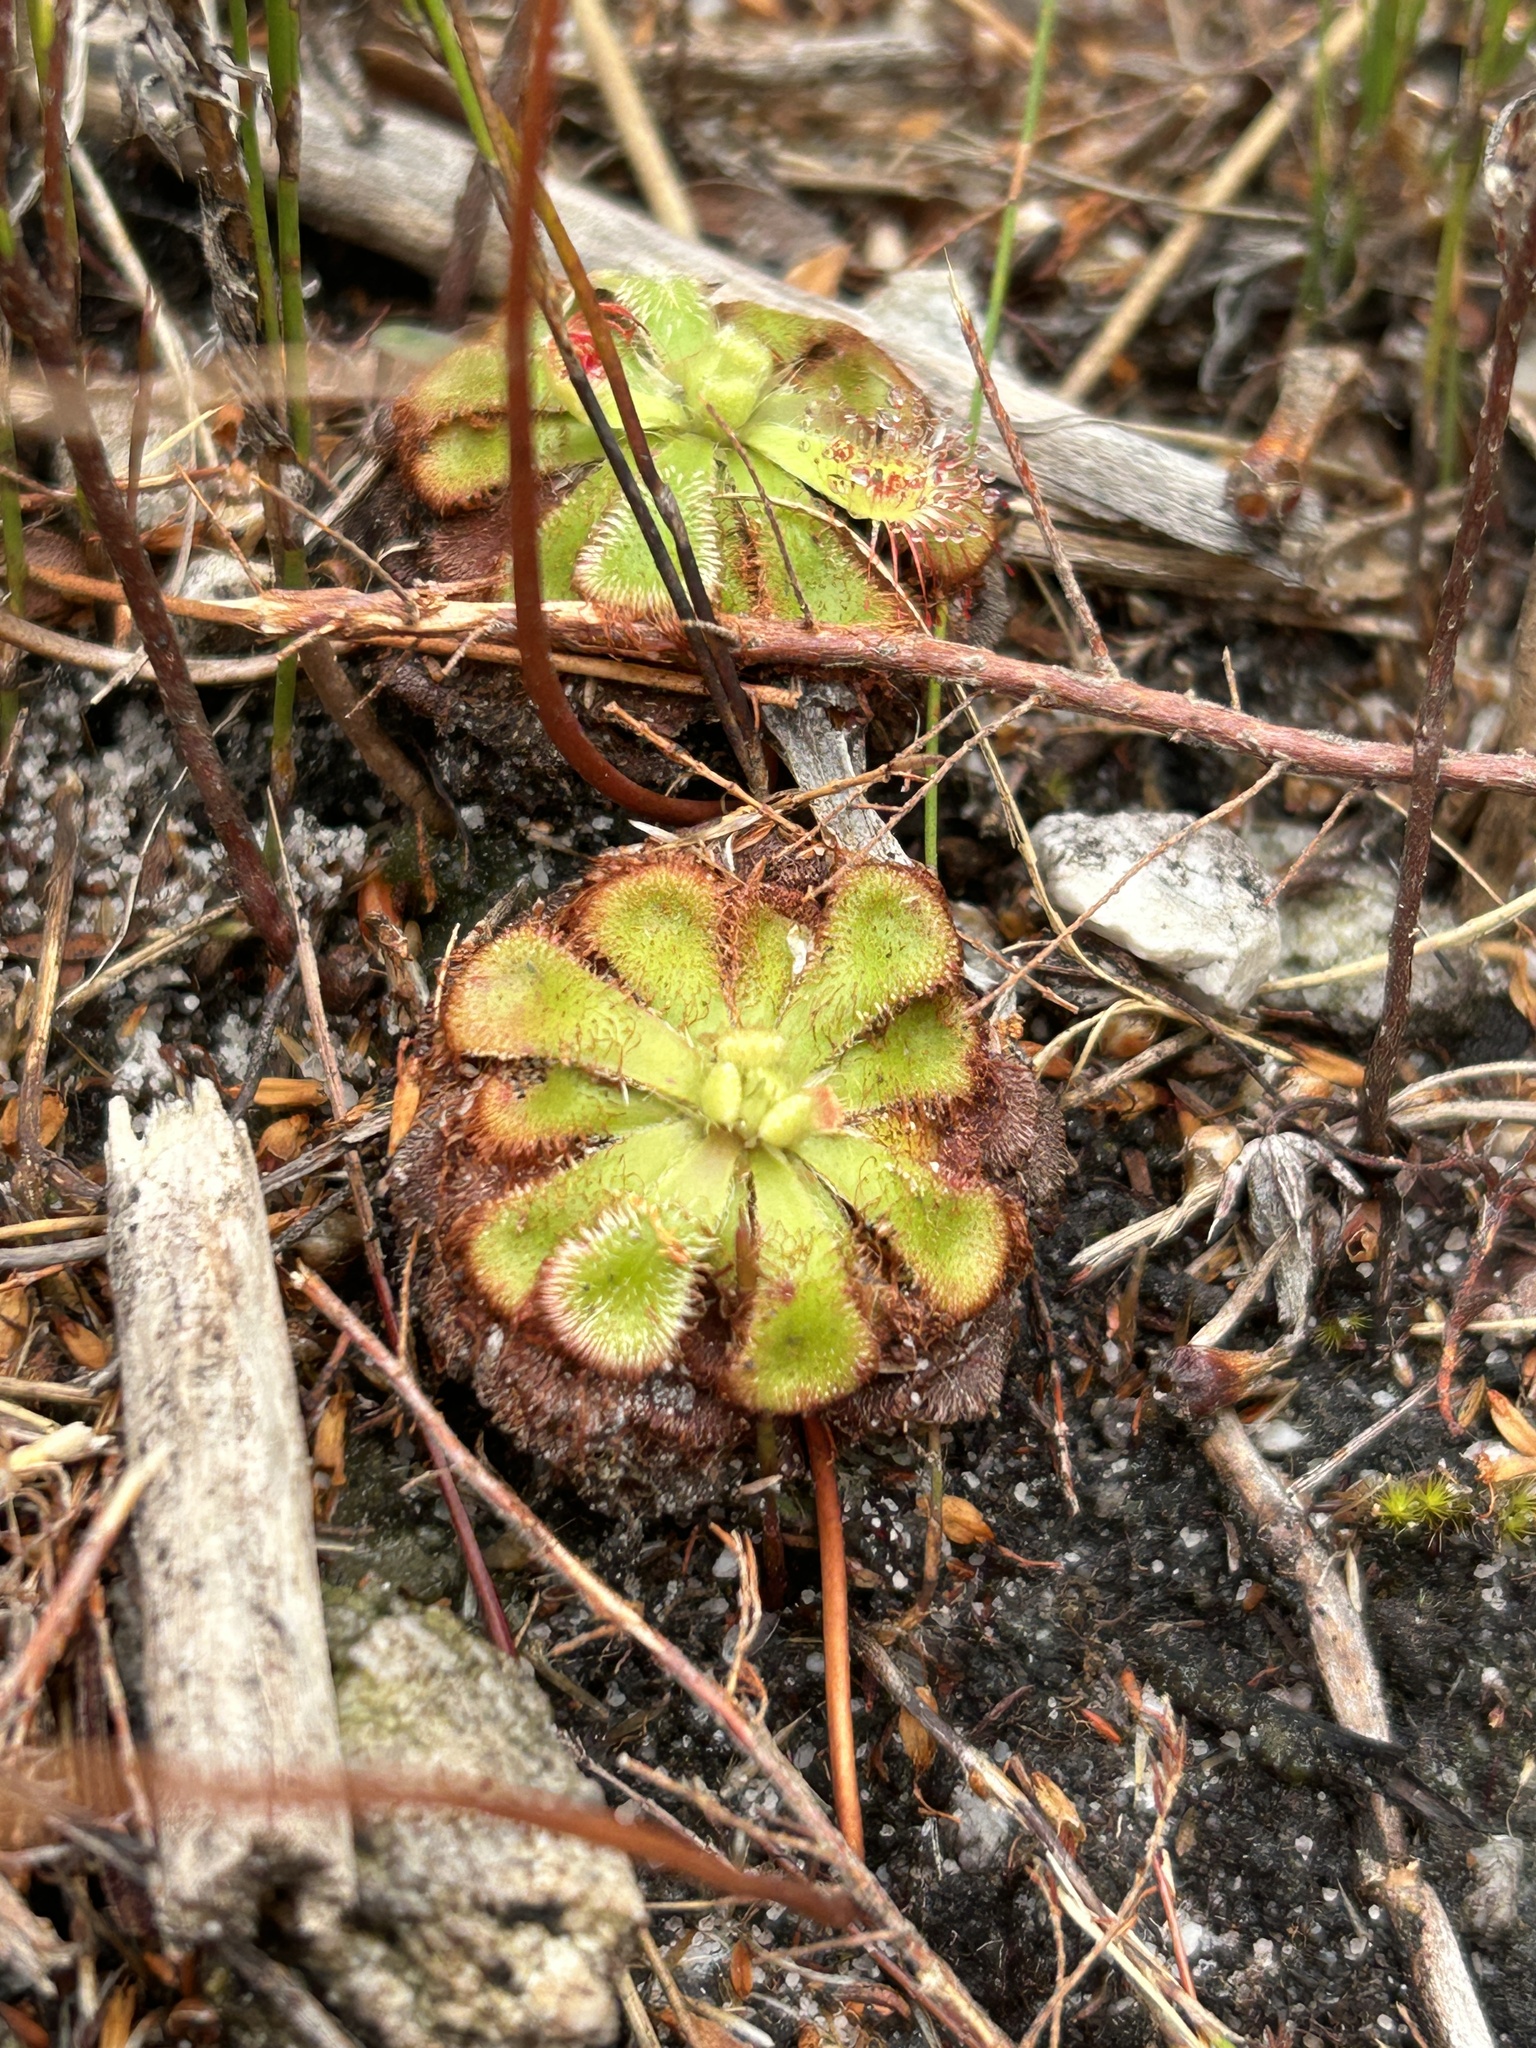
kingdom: Plantae
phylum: Tracheophyta
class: Magnoliopsida
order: Caryophyllales
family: Droseraceae
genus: Drosera
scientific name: Drosera xerophila
